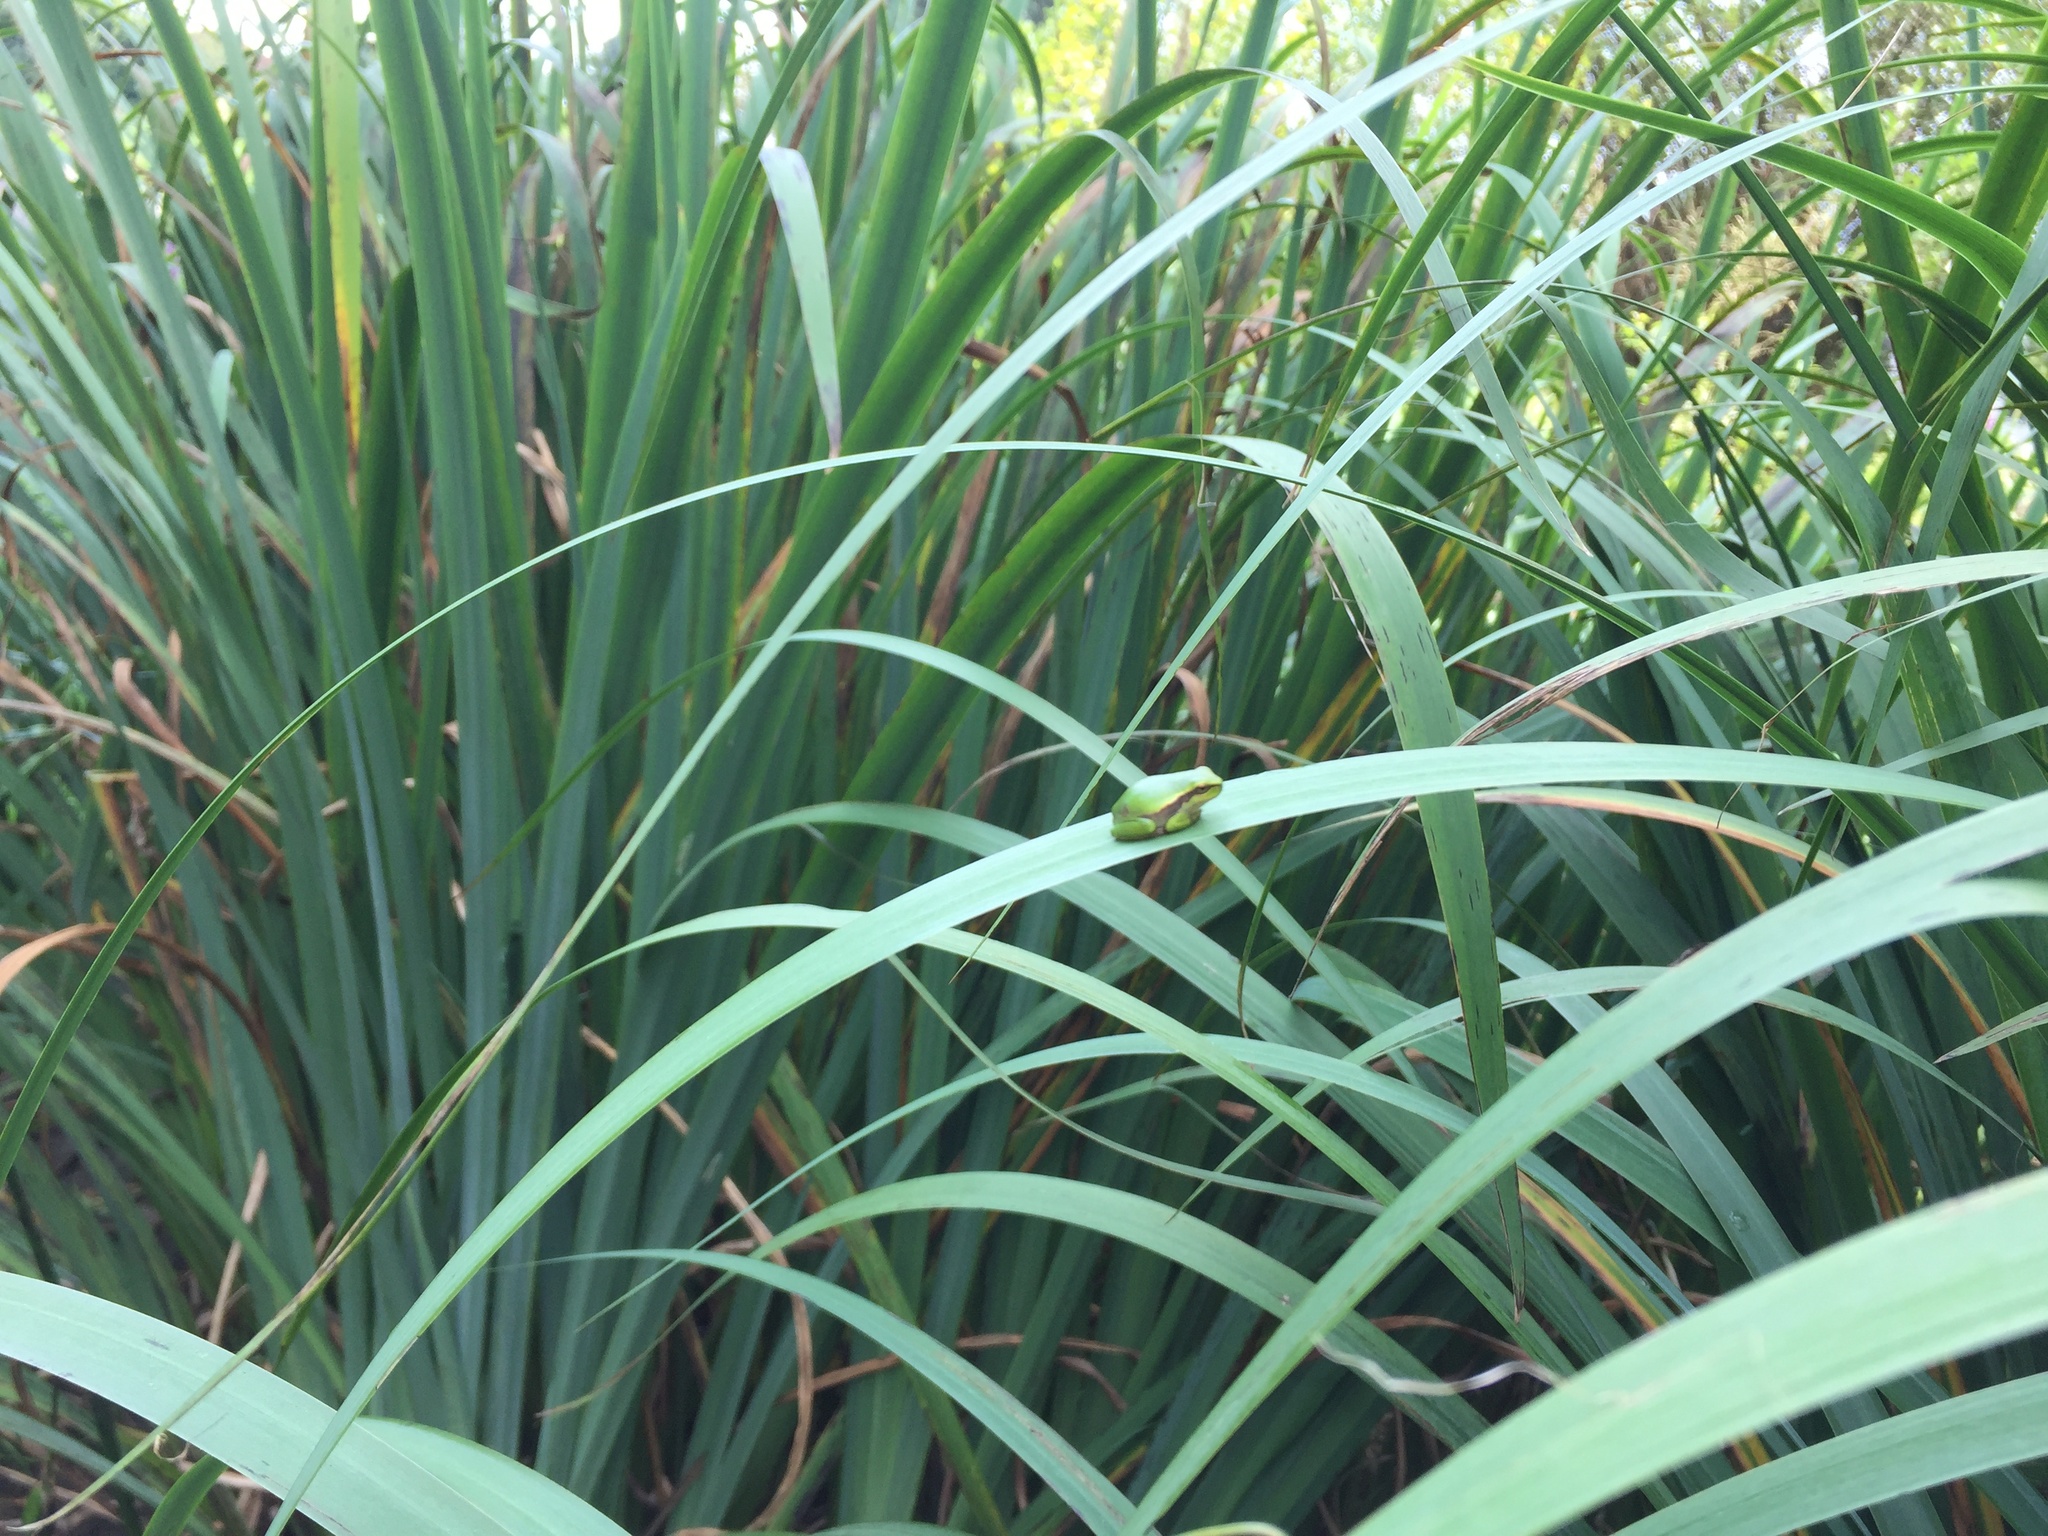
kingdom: Animalia
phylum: Chordata
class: Amphibia
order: Anura
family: Hylidae
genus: Hyla
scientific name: Hyla arborea
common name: Common tree frog
